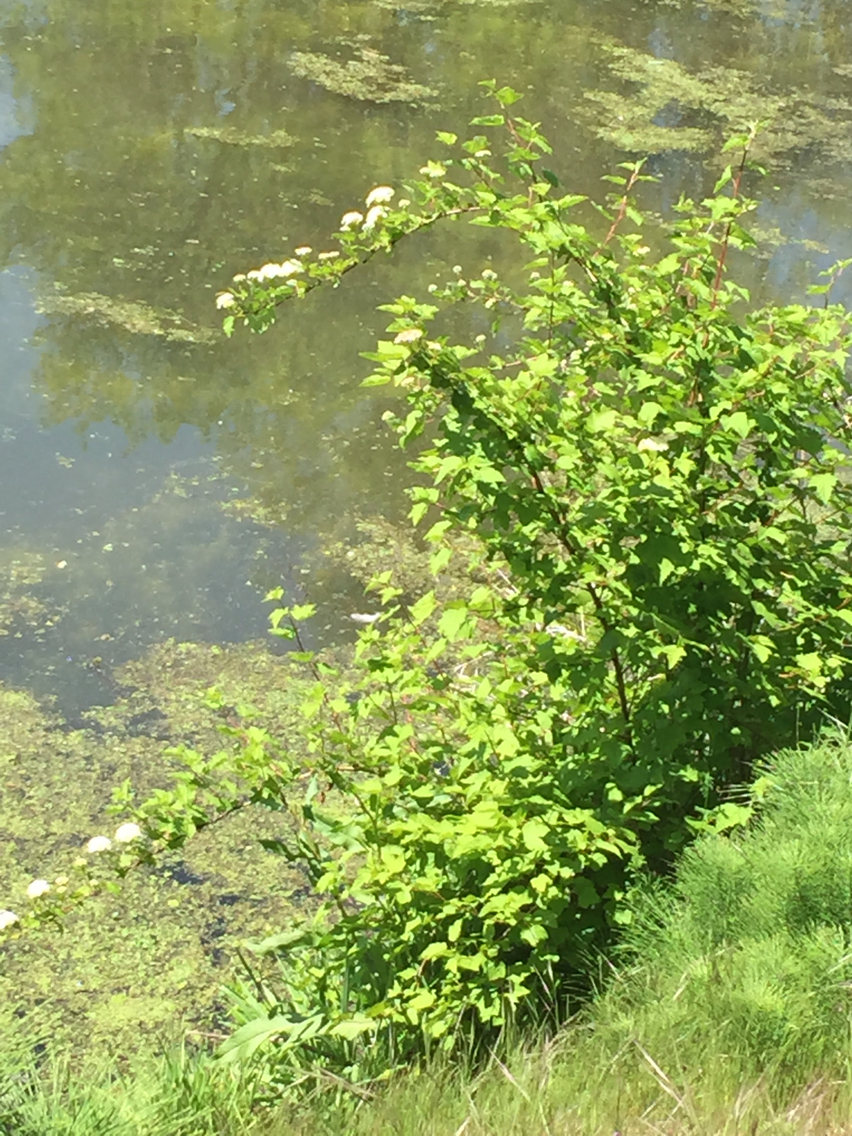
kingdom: Plantae
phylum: Tracheophyta
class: Magnoliopsida
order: Rosales
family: Rosaceae
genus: Physocarpus
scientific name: Physocarpus capitatus
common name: Pacific ninebark
